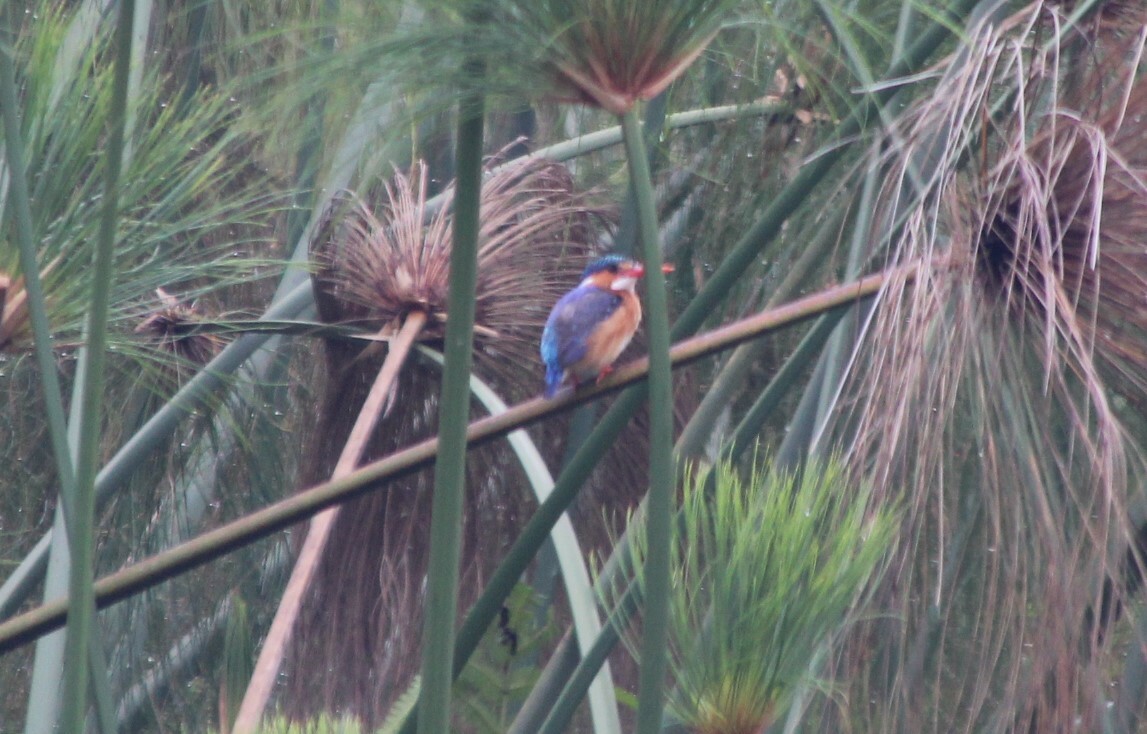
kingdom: Animalia
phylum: Chordata
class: Aves
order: Coraciiformes
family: Alcedinidae
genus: Corythornis
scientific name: Corythornis cristatus
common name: Malachite kingfisher
